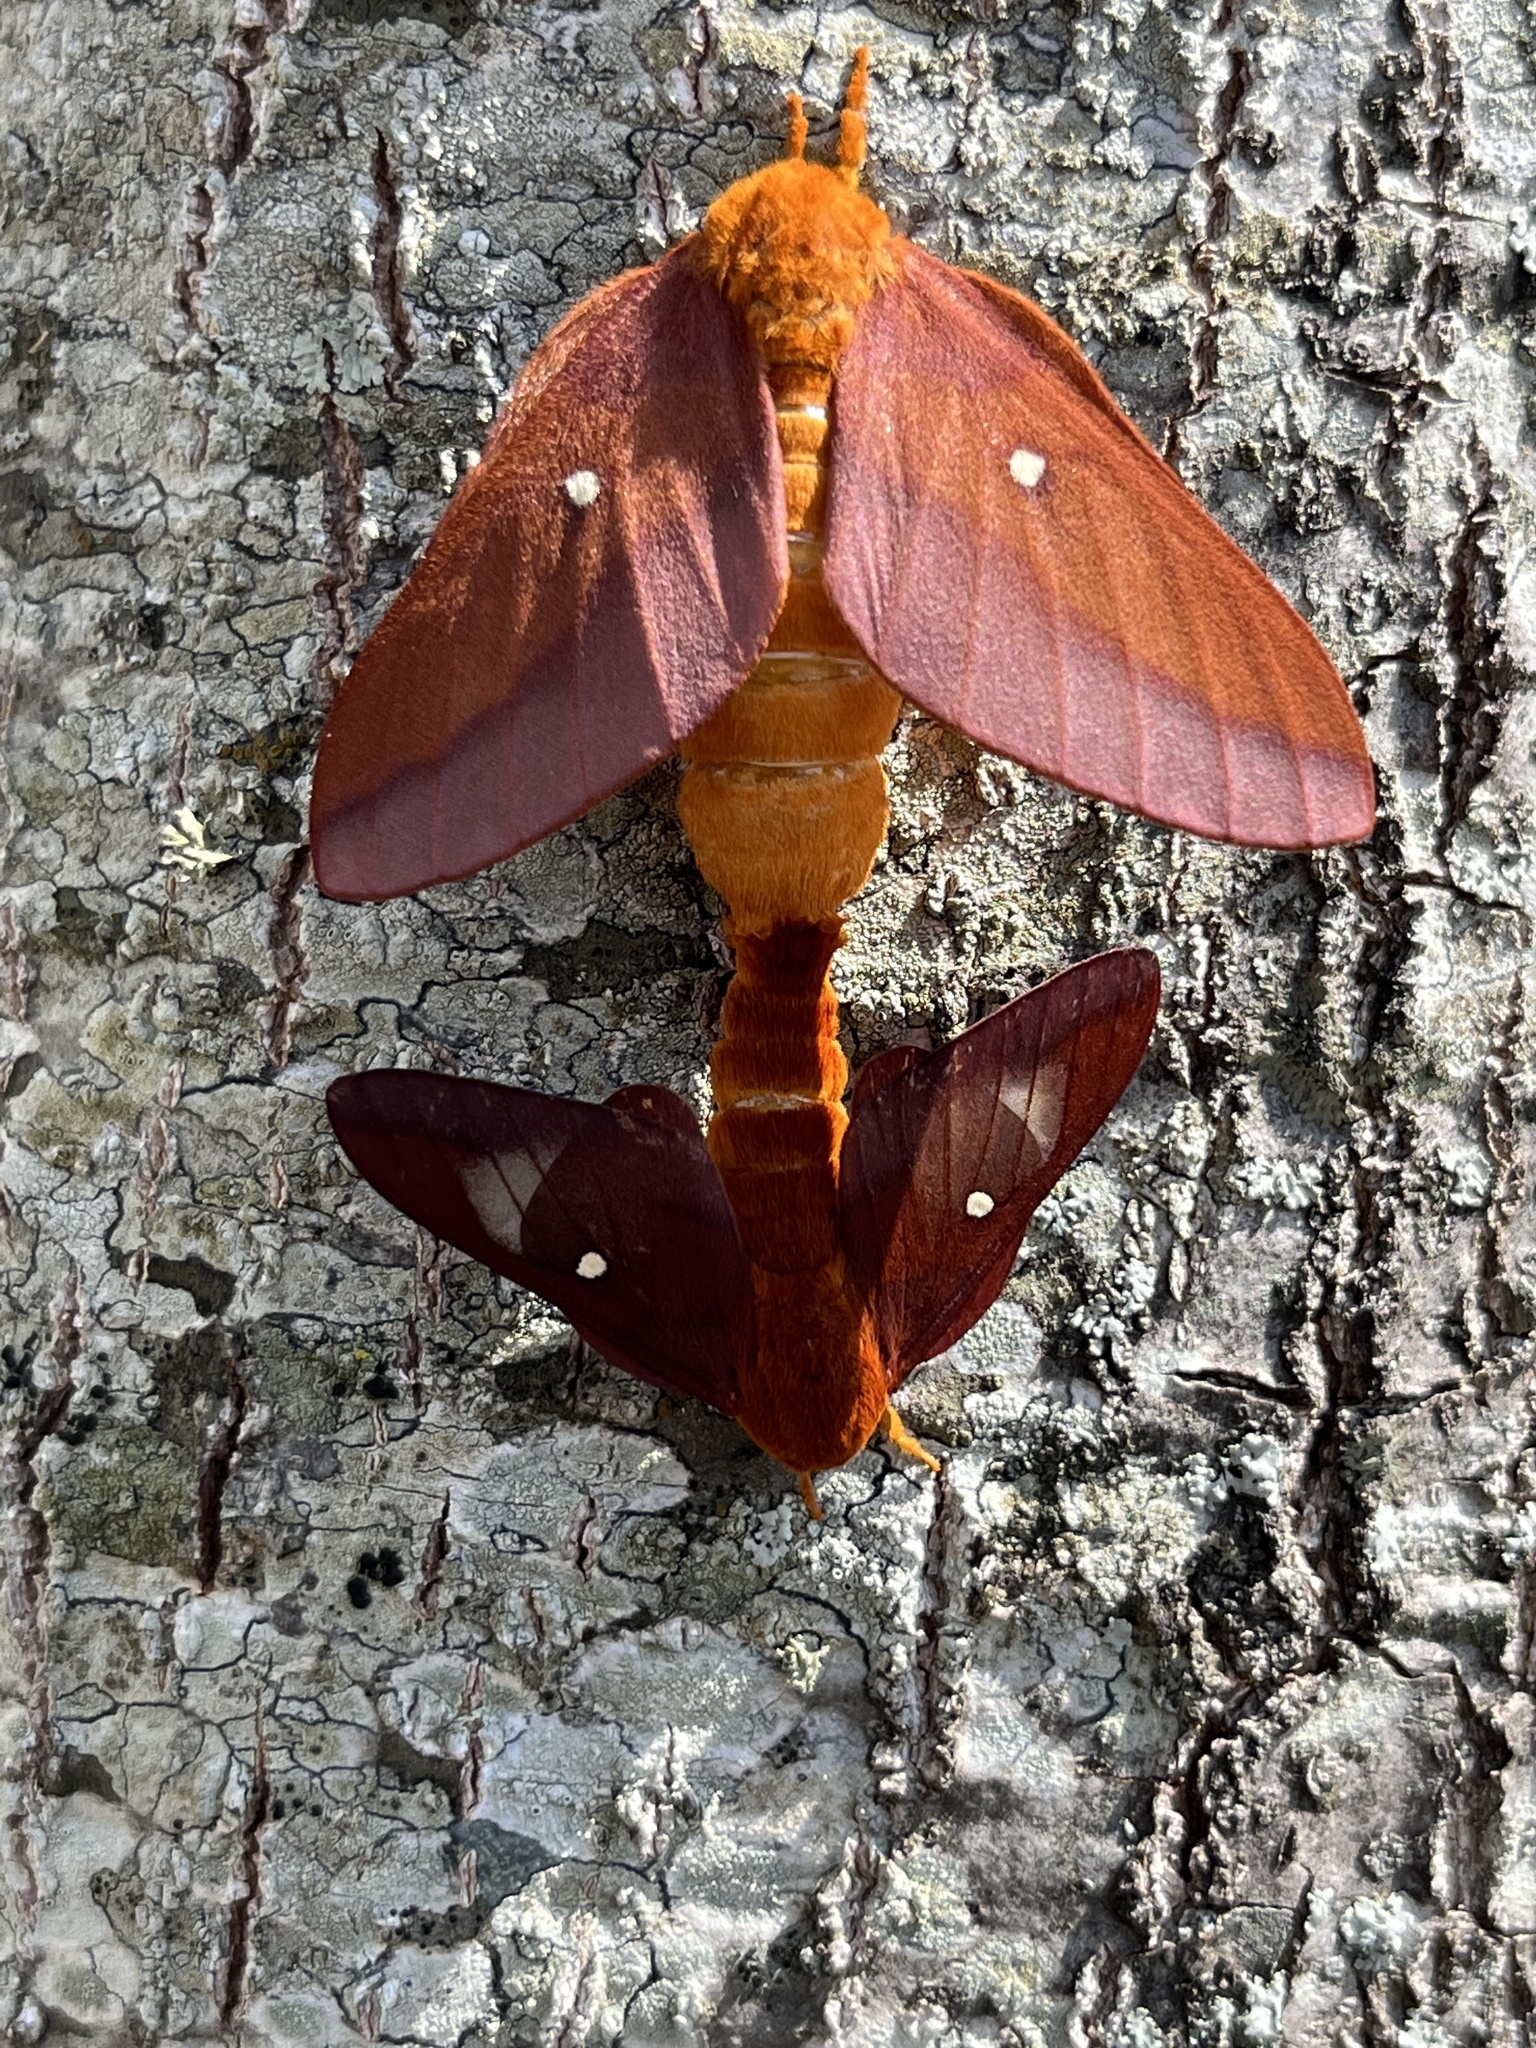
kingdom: Animalia
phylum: Arthropoda
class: Insecta
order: Lepidoptera
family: Saturniidae
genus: Anisota
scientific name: Anisota virginiensis
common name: Pink striped oakworm moth
